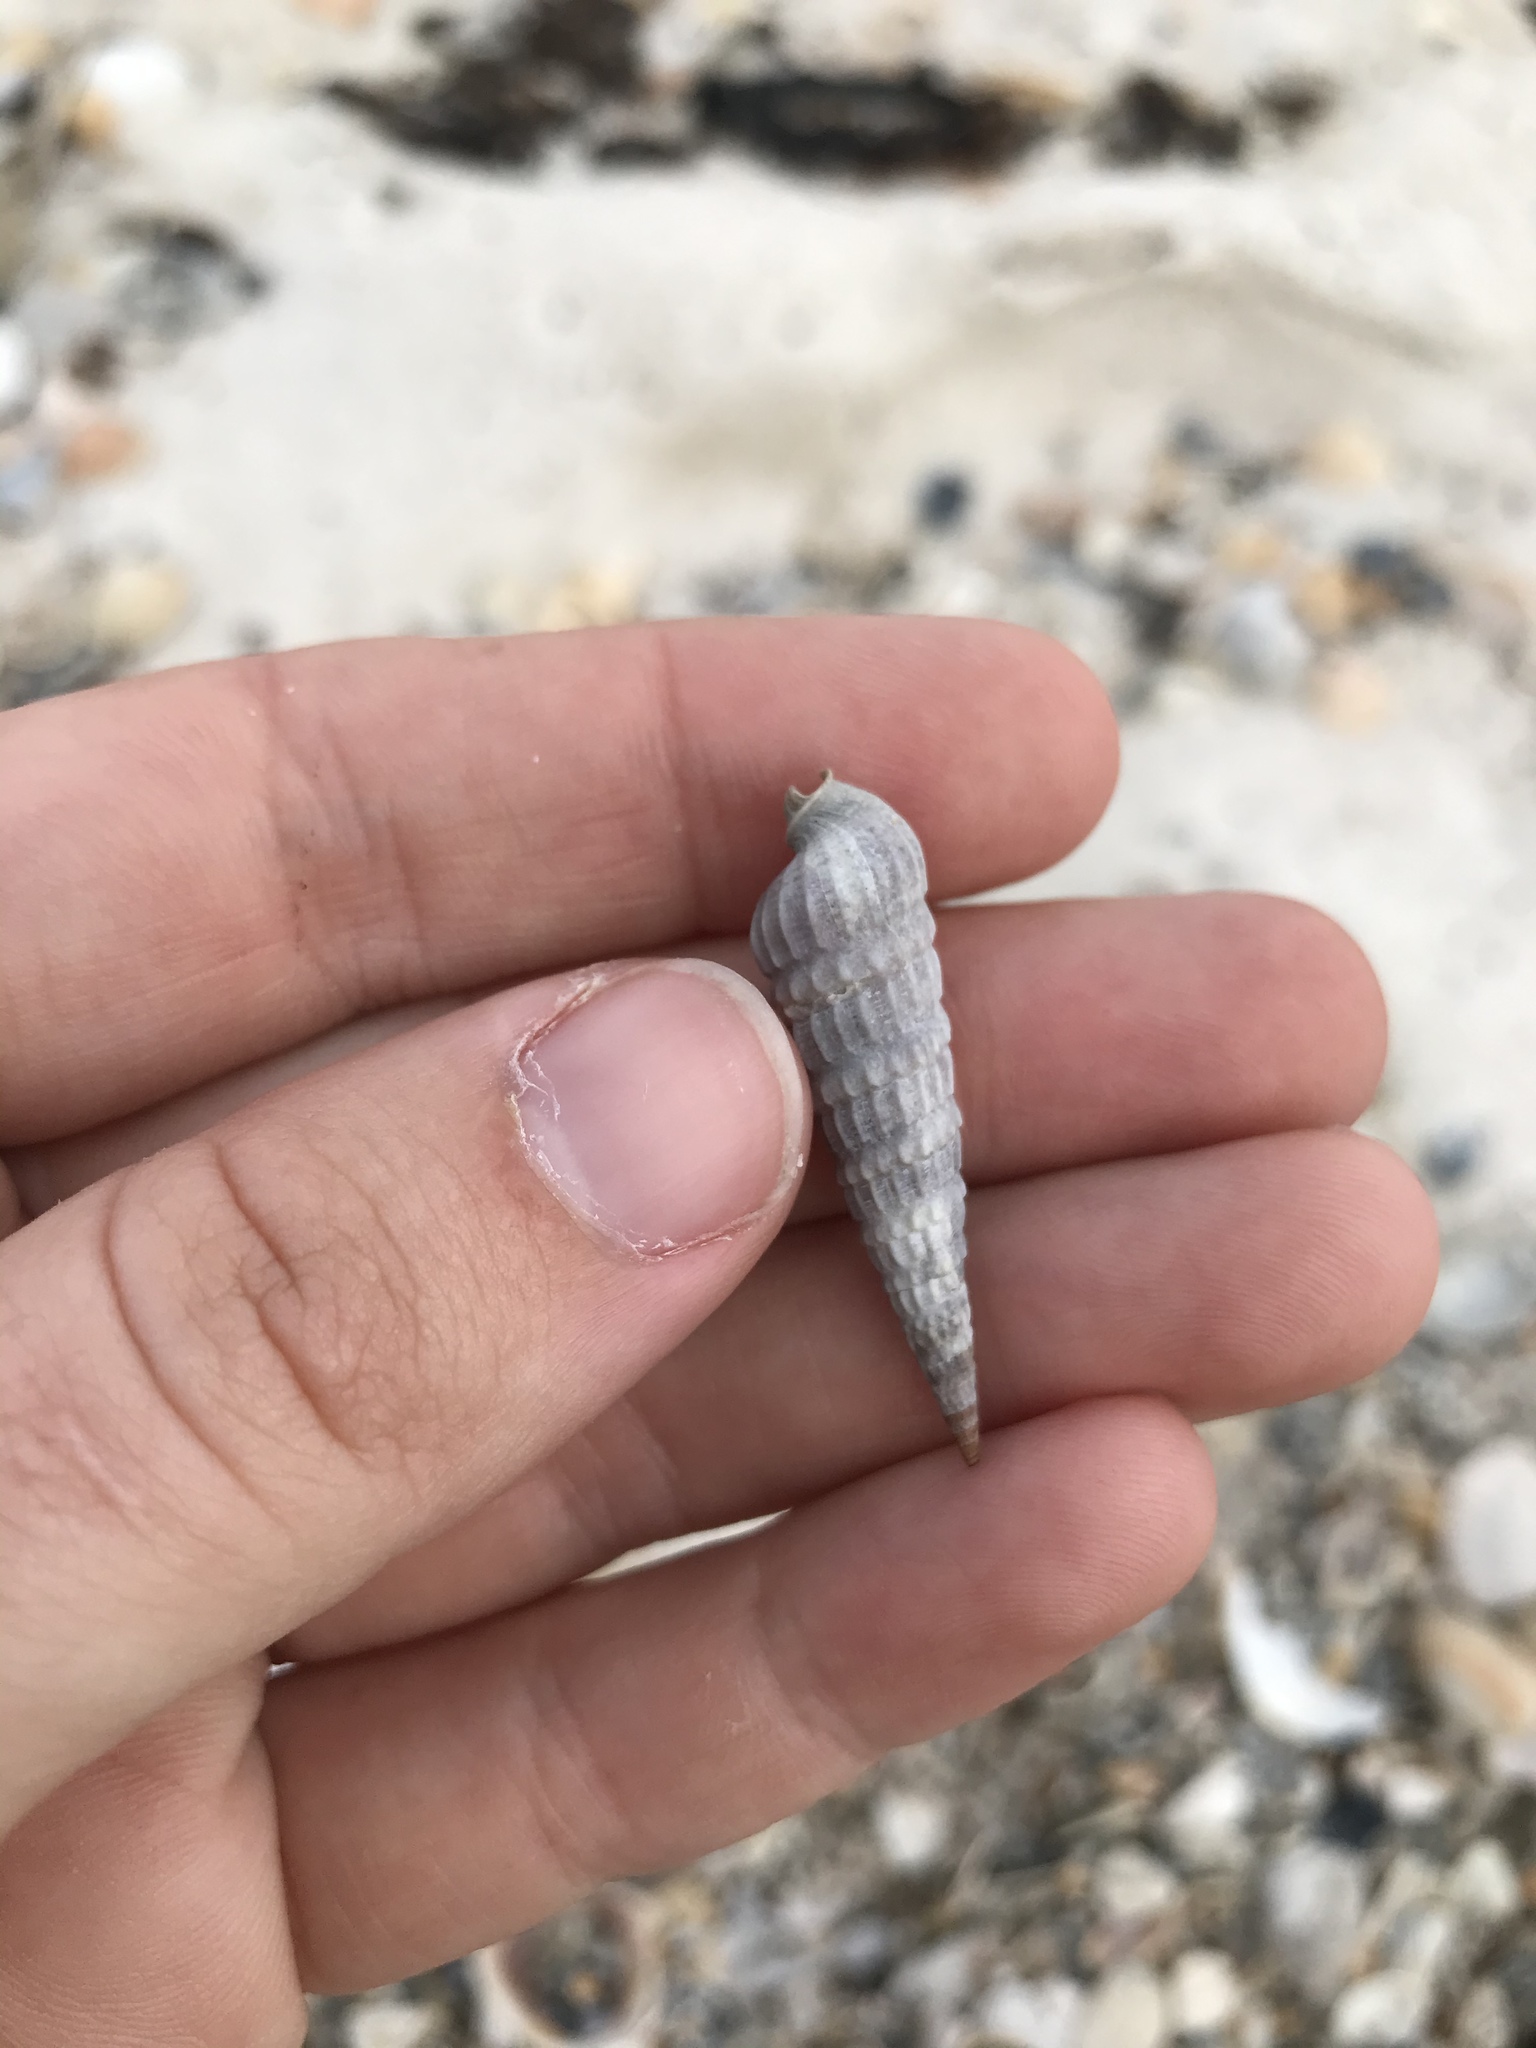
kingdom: Animalia
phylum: Mollusca
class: Gastropoda
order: Neogastropoda
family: Terebridae
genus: Neoterebra
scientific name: Neoterebra dislocata
